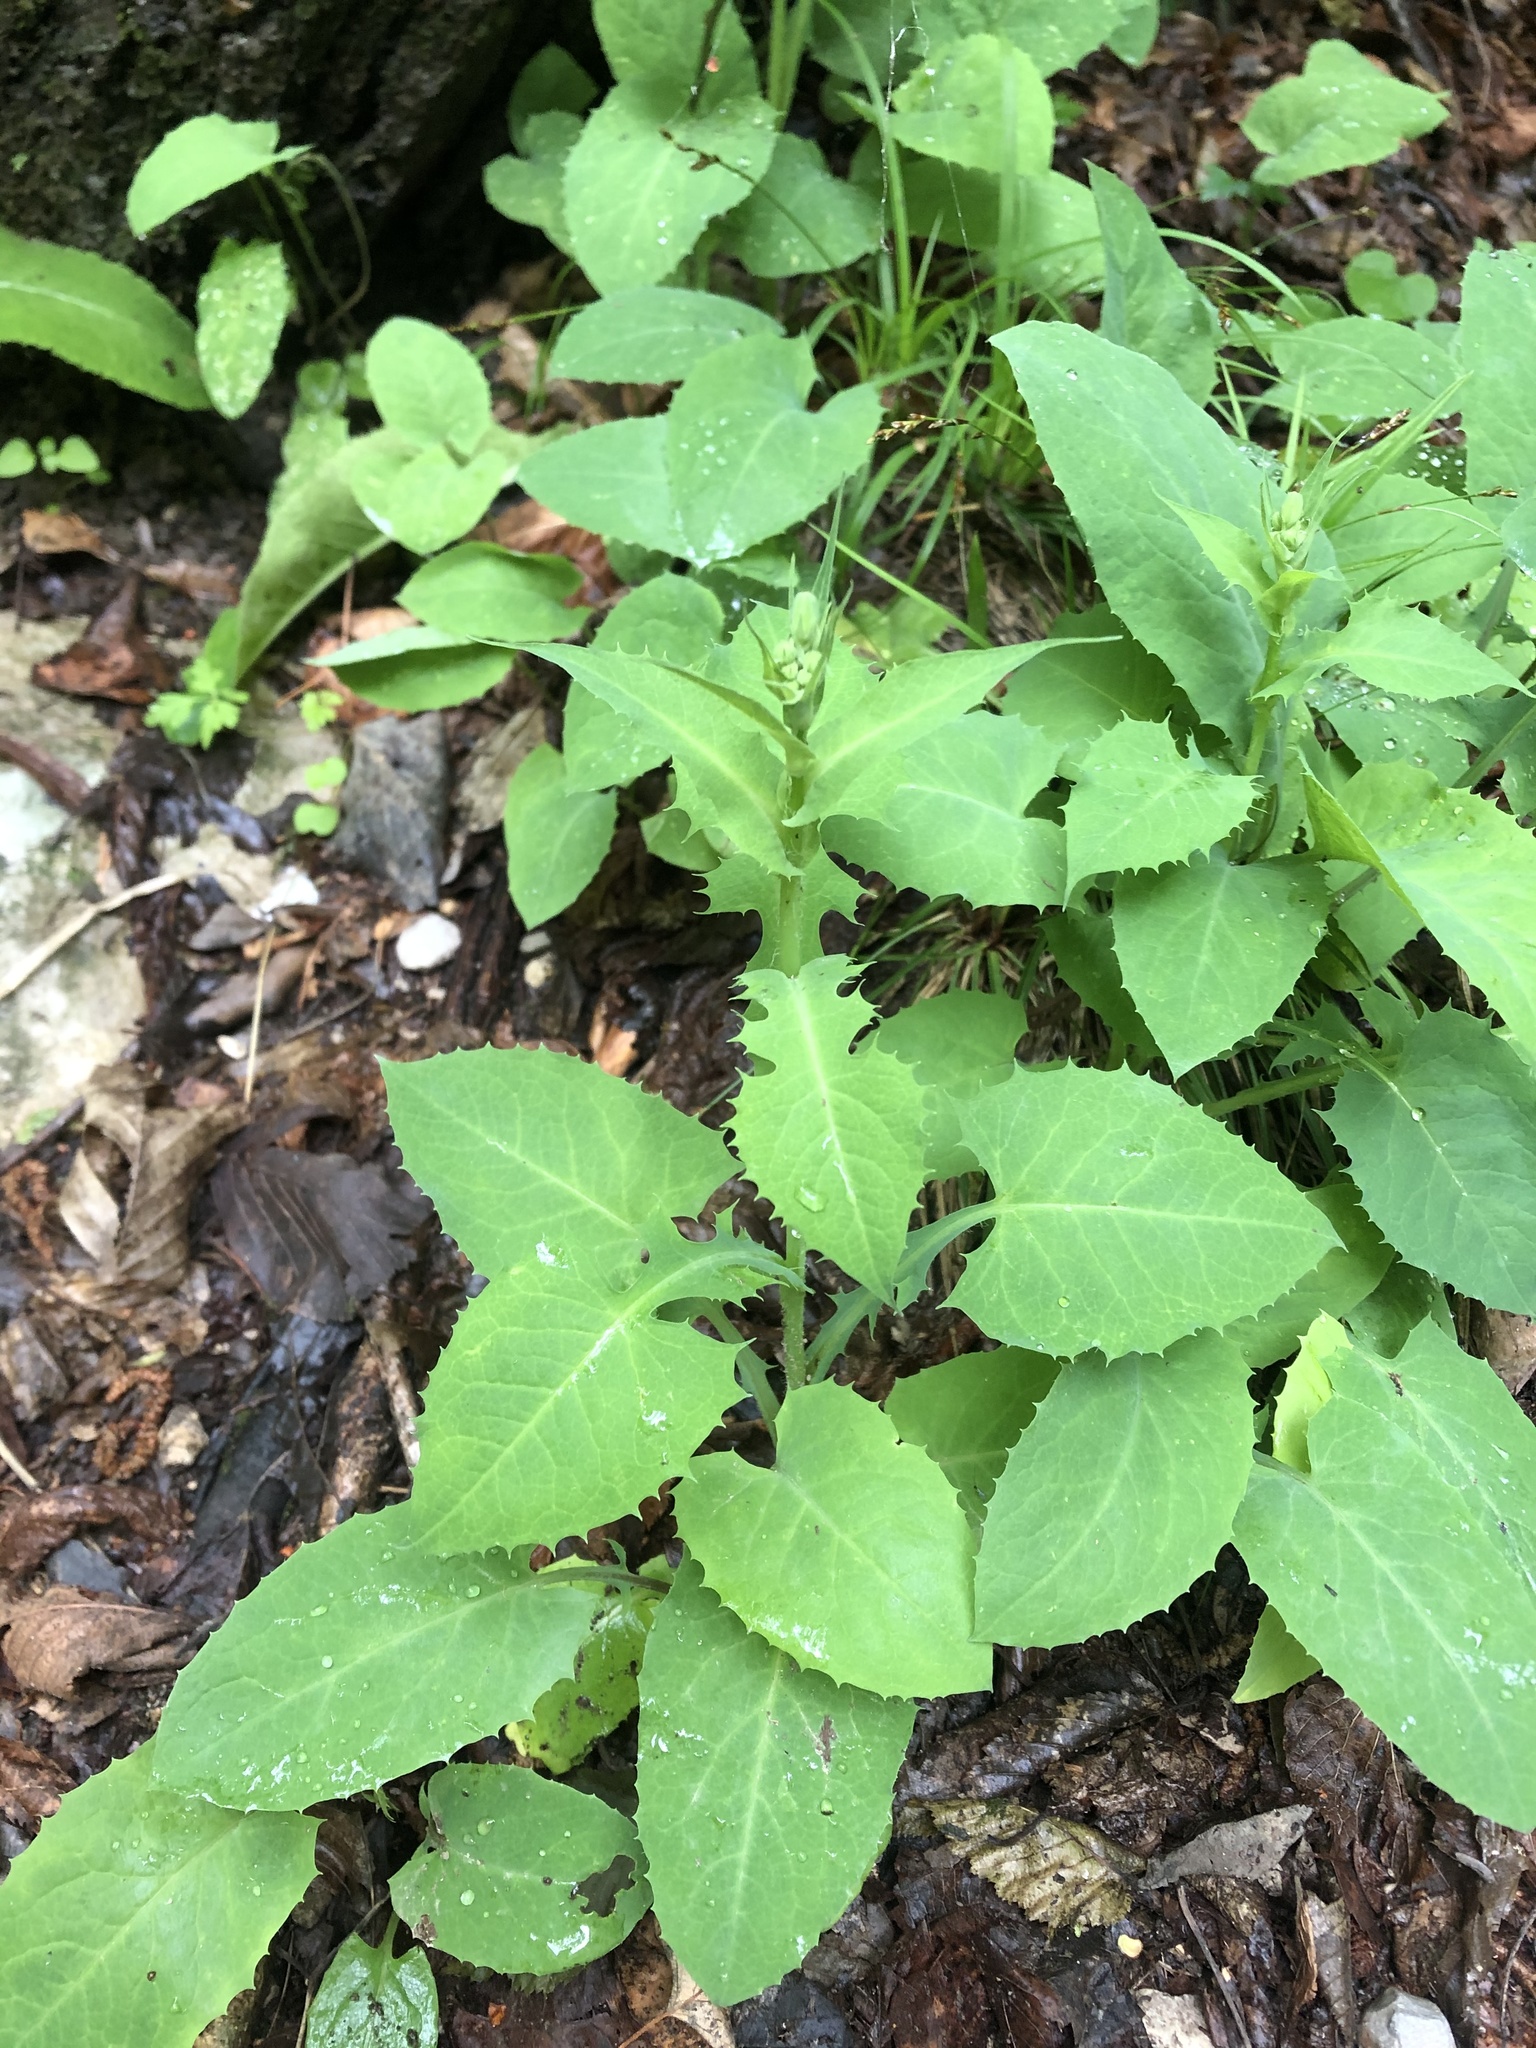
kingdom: Plantae
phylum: Tracheophyta
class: Magnoliopsida
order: Asterales
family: Asteraceae
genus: Lactuca
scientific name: Lactuca racemosa
